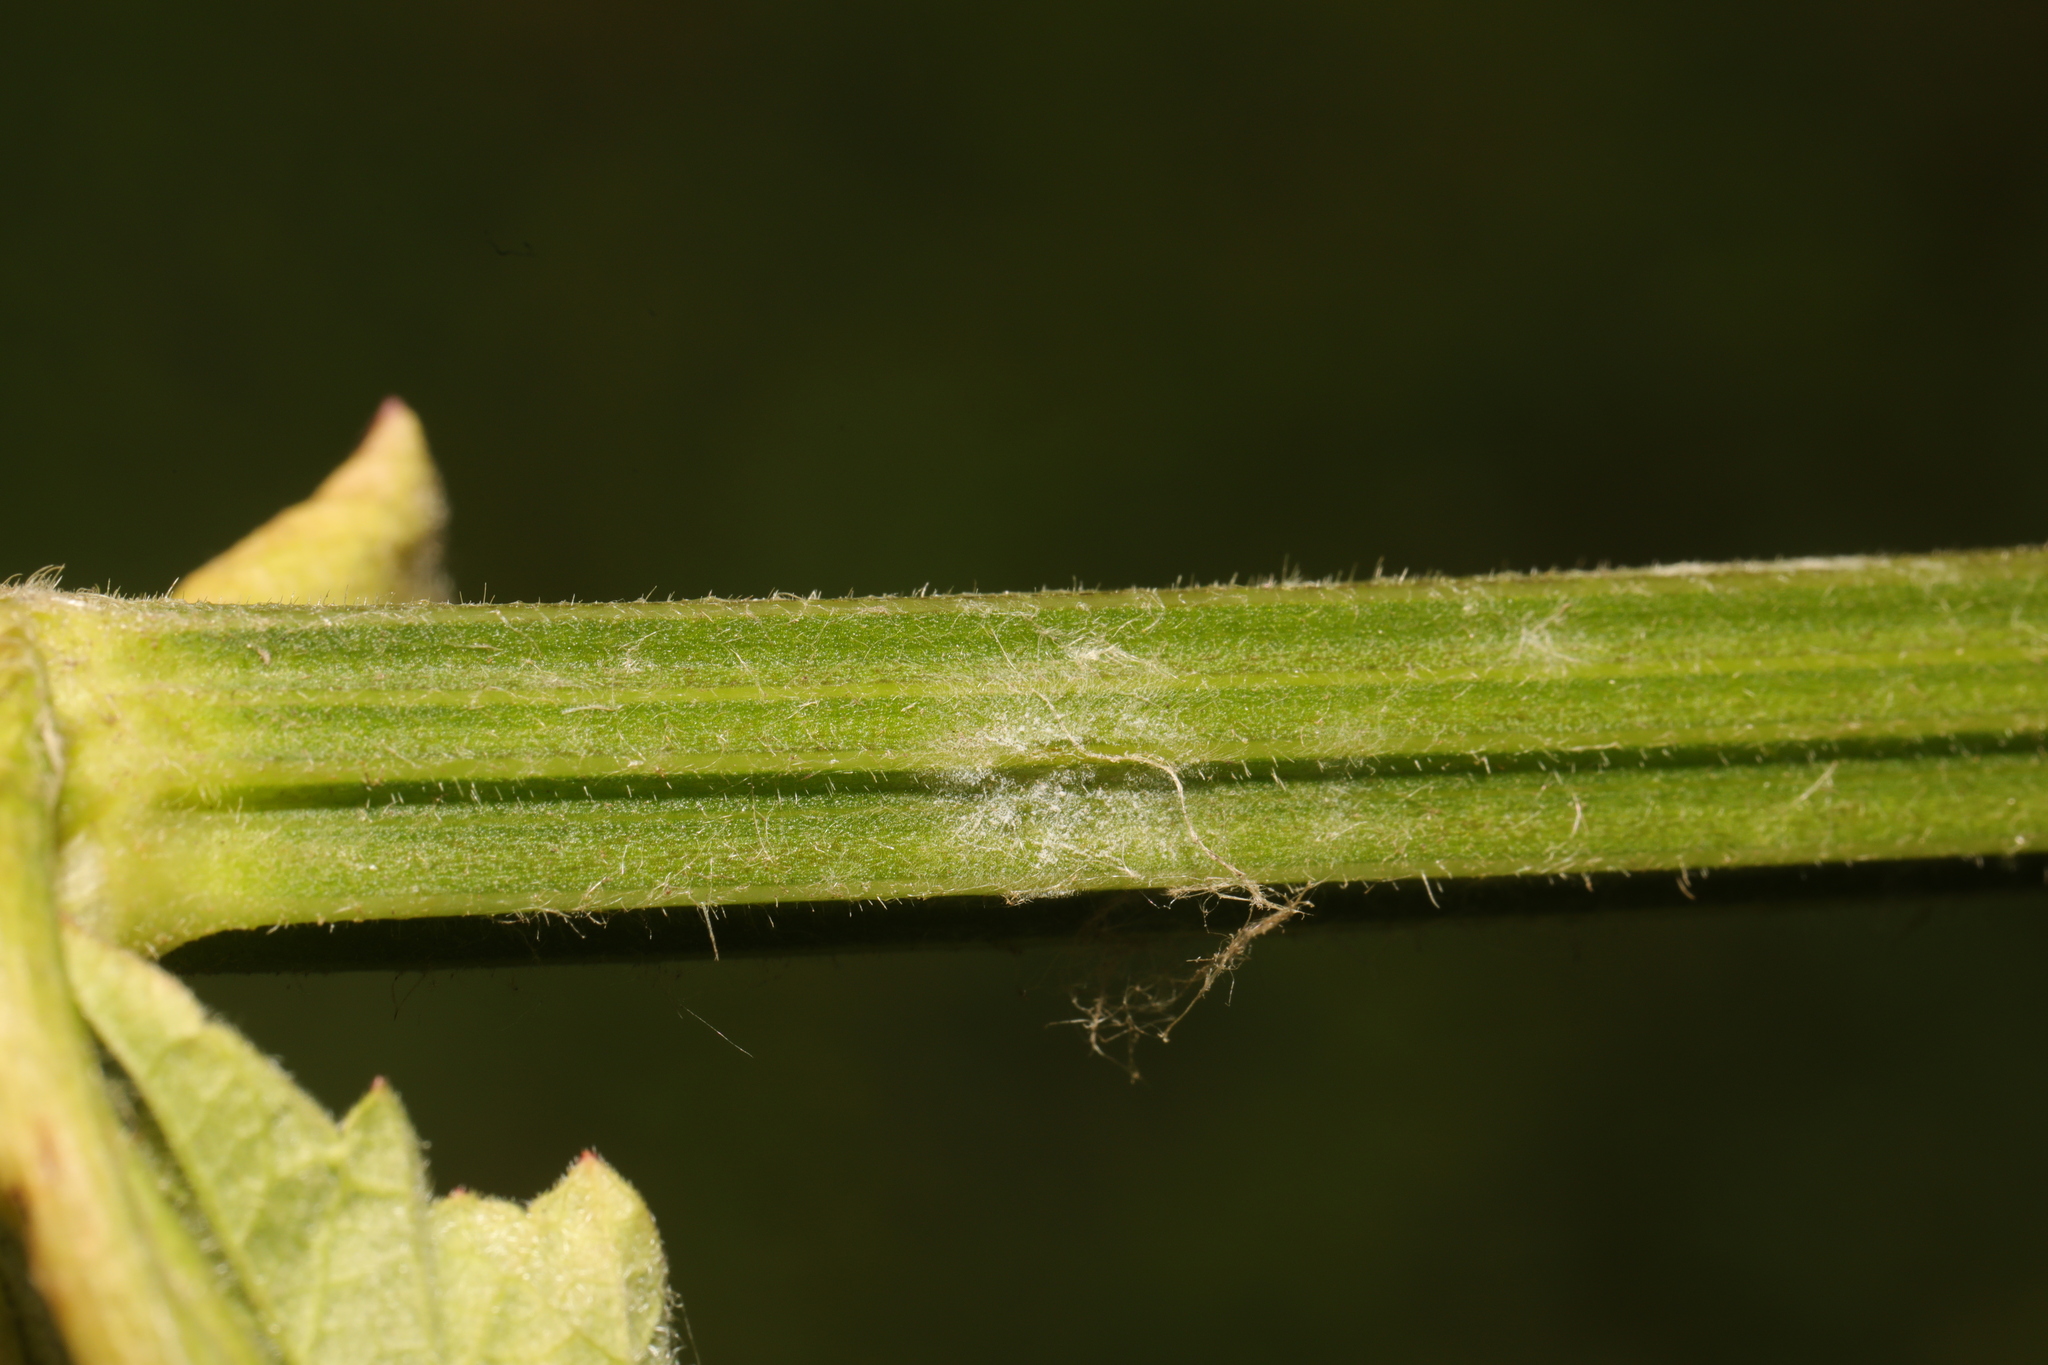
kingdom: Fungi
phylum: Ascomycota
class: Leotiomycetes
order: Helotiales
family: Erysiphaceae
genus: Erysiphe
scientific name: Erysiphe heraclei
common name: Umbellifer mildew
